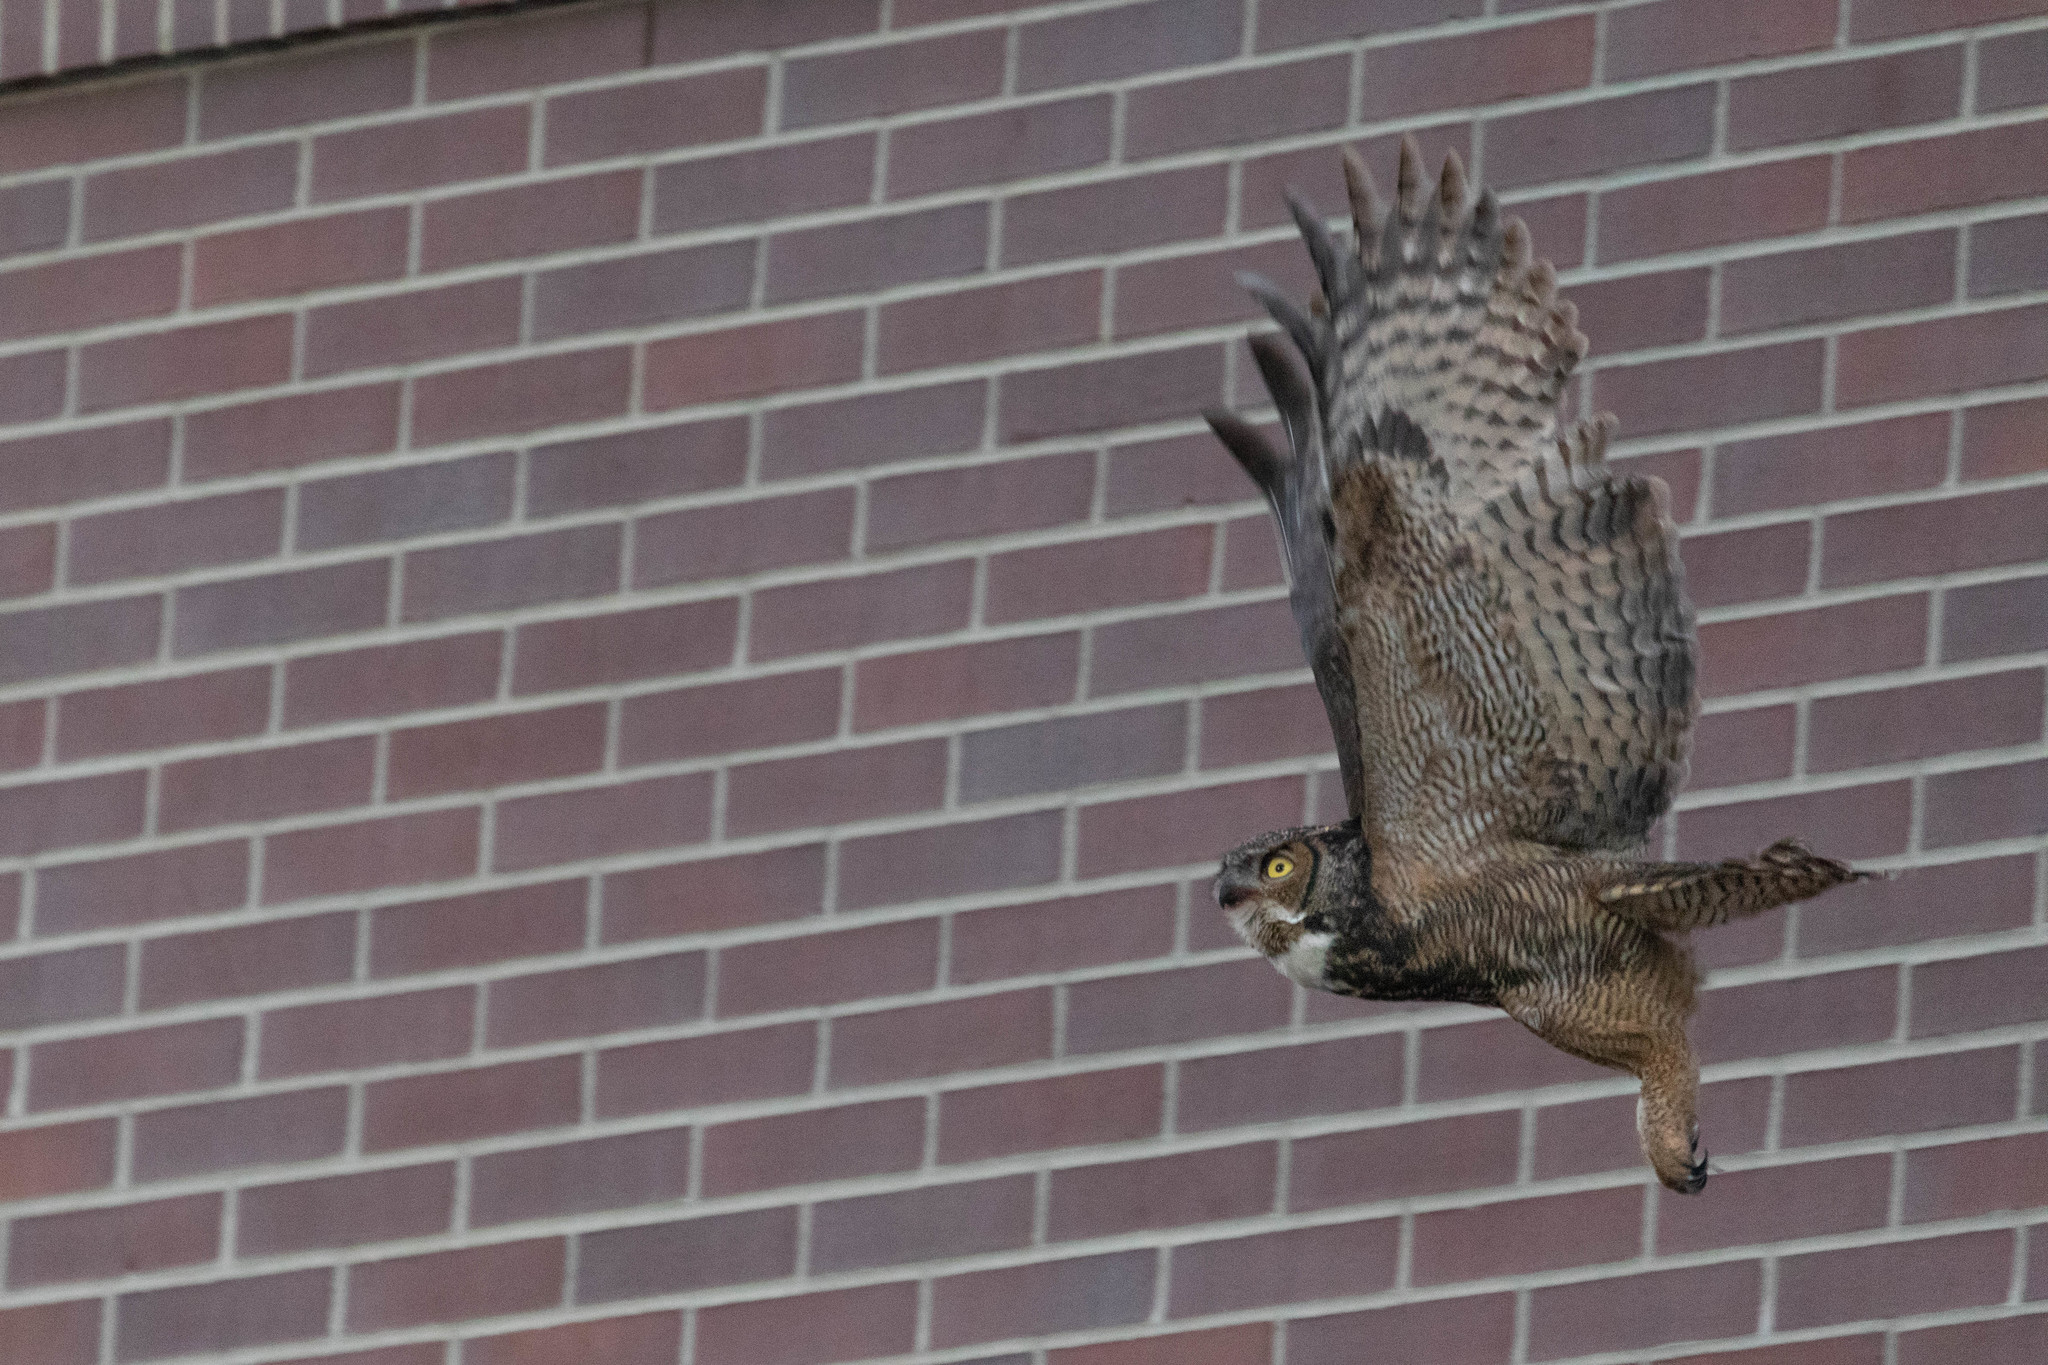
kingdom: Animalia
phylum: Chordata
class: Aves
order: Strigiformes
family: Strigidae
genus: Bubo
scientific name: Bubo virginianus
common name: Great horned owl
